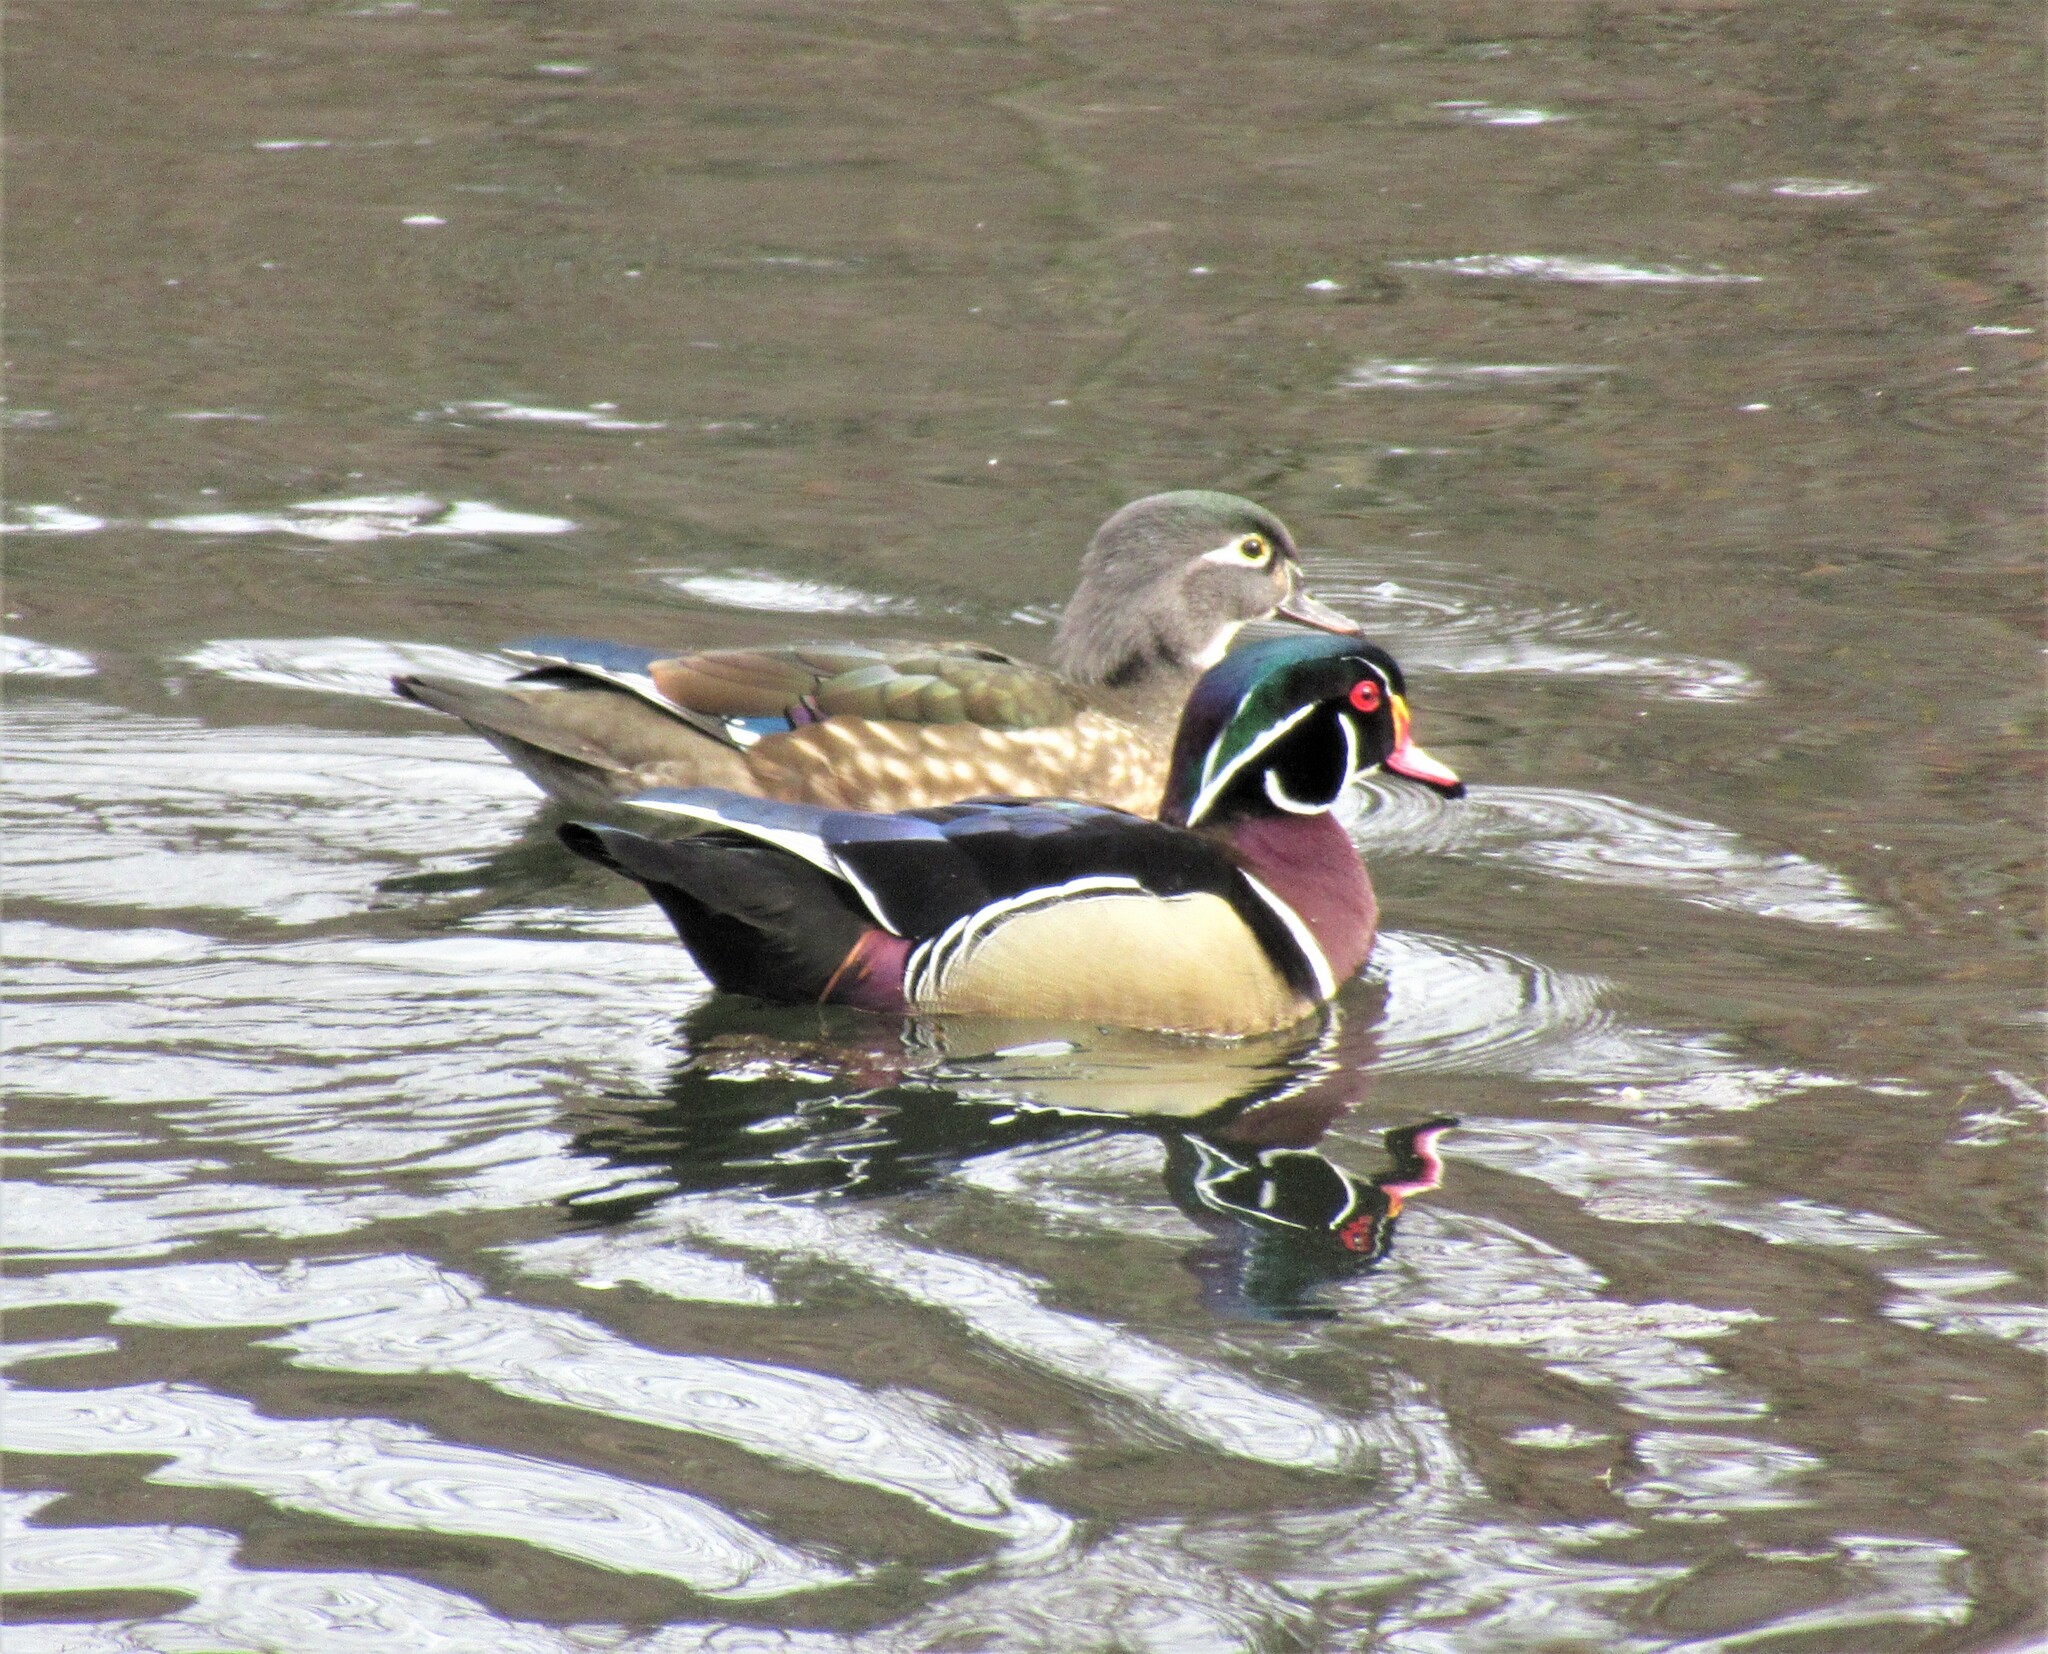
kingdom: Animalia
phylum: Chordata
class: Aves
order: Anseriformes
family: Anatidae
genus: Aix
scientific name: Aix sponsa
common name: Wood duck
